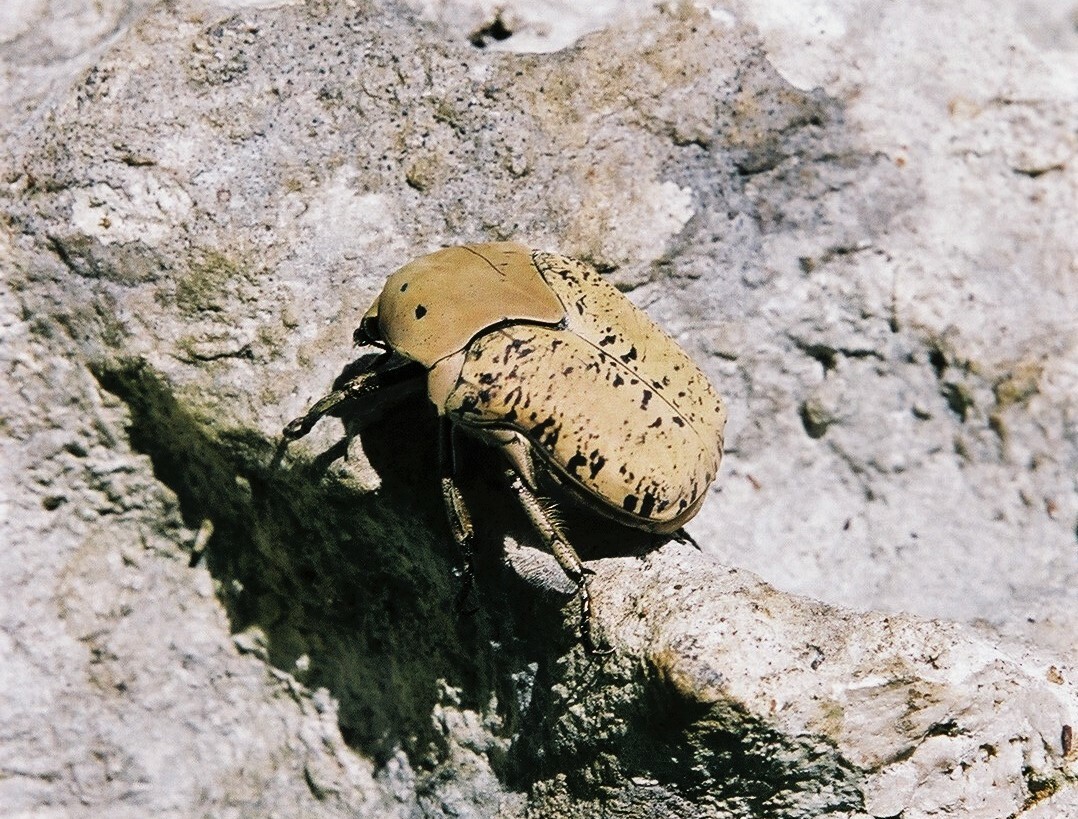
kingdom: Animalia
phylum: Arthropoda
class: Insecta
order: Coleoptera
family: Scarabaeidae
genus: Gymnetis
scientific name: Gymnetis lanius
